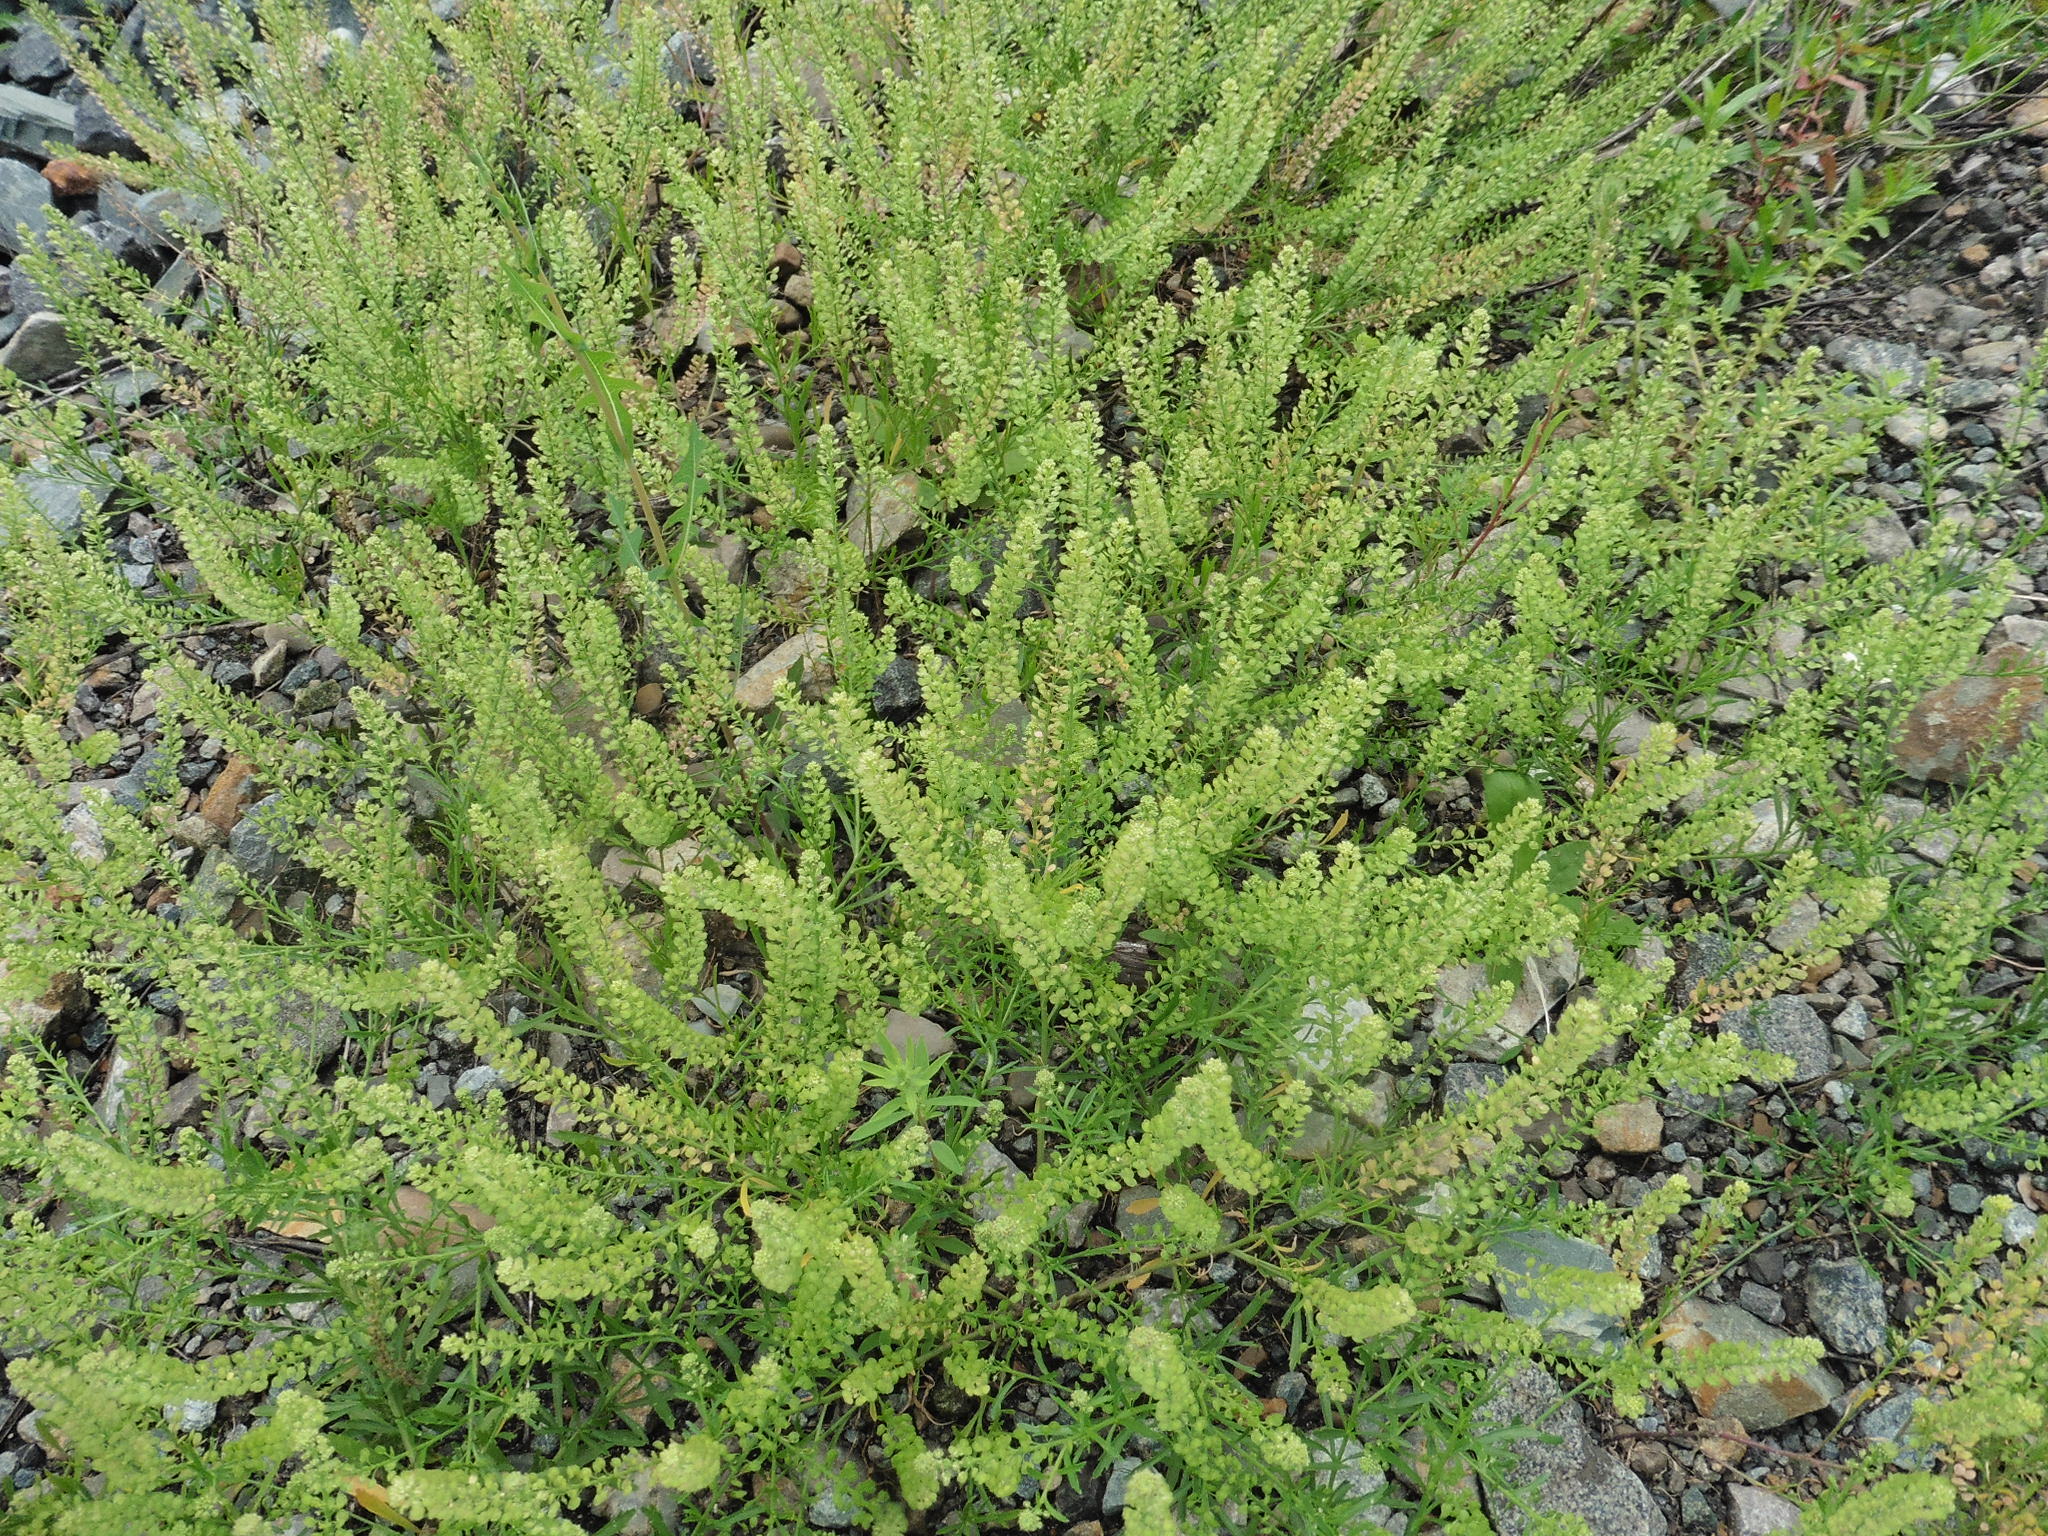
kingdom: Plantae
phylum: Tracheophyta
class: Magnoliopsida
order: Brassicales
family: Brassicaceae
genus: Lepidium
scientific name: Lepidium densiflorum
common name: Miner's pepperwort
